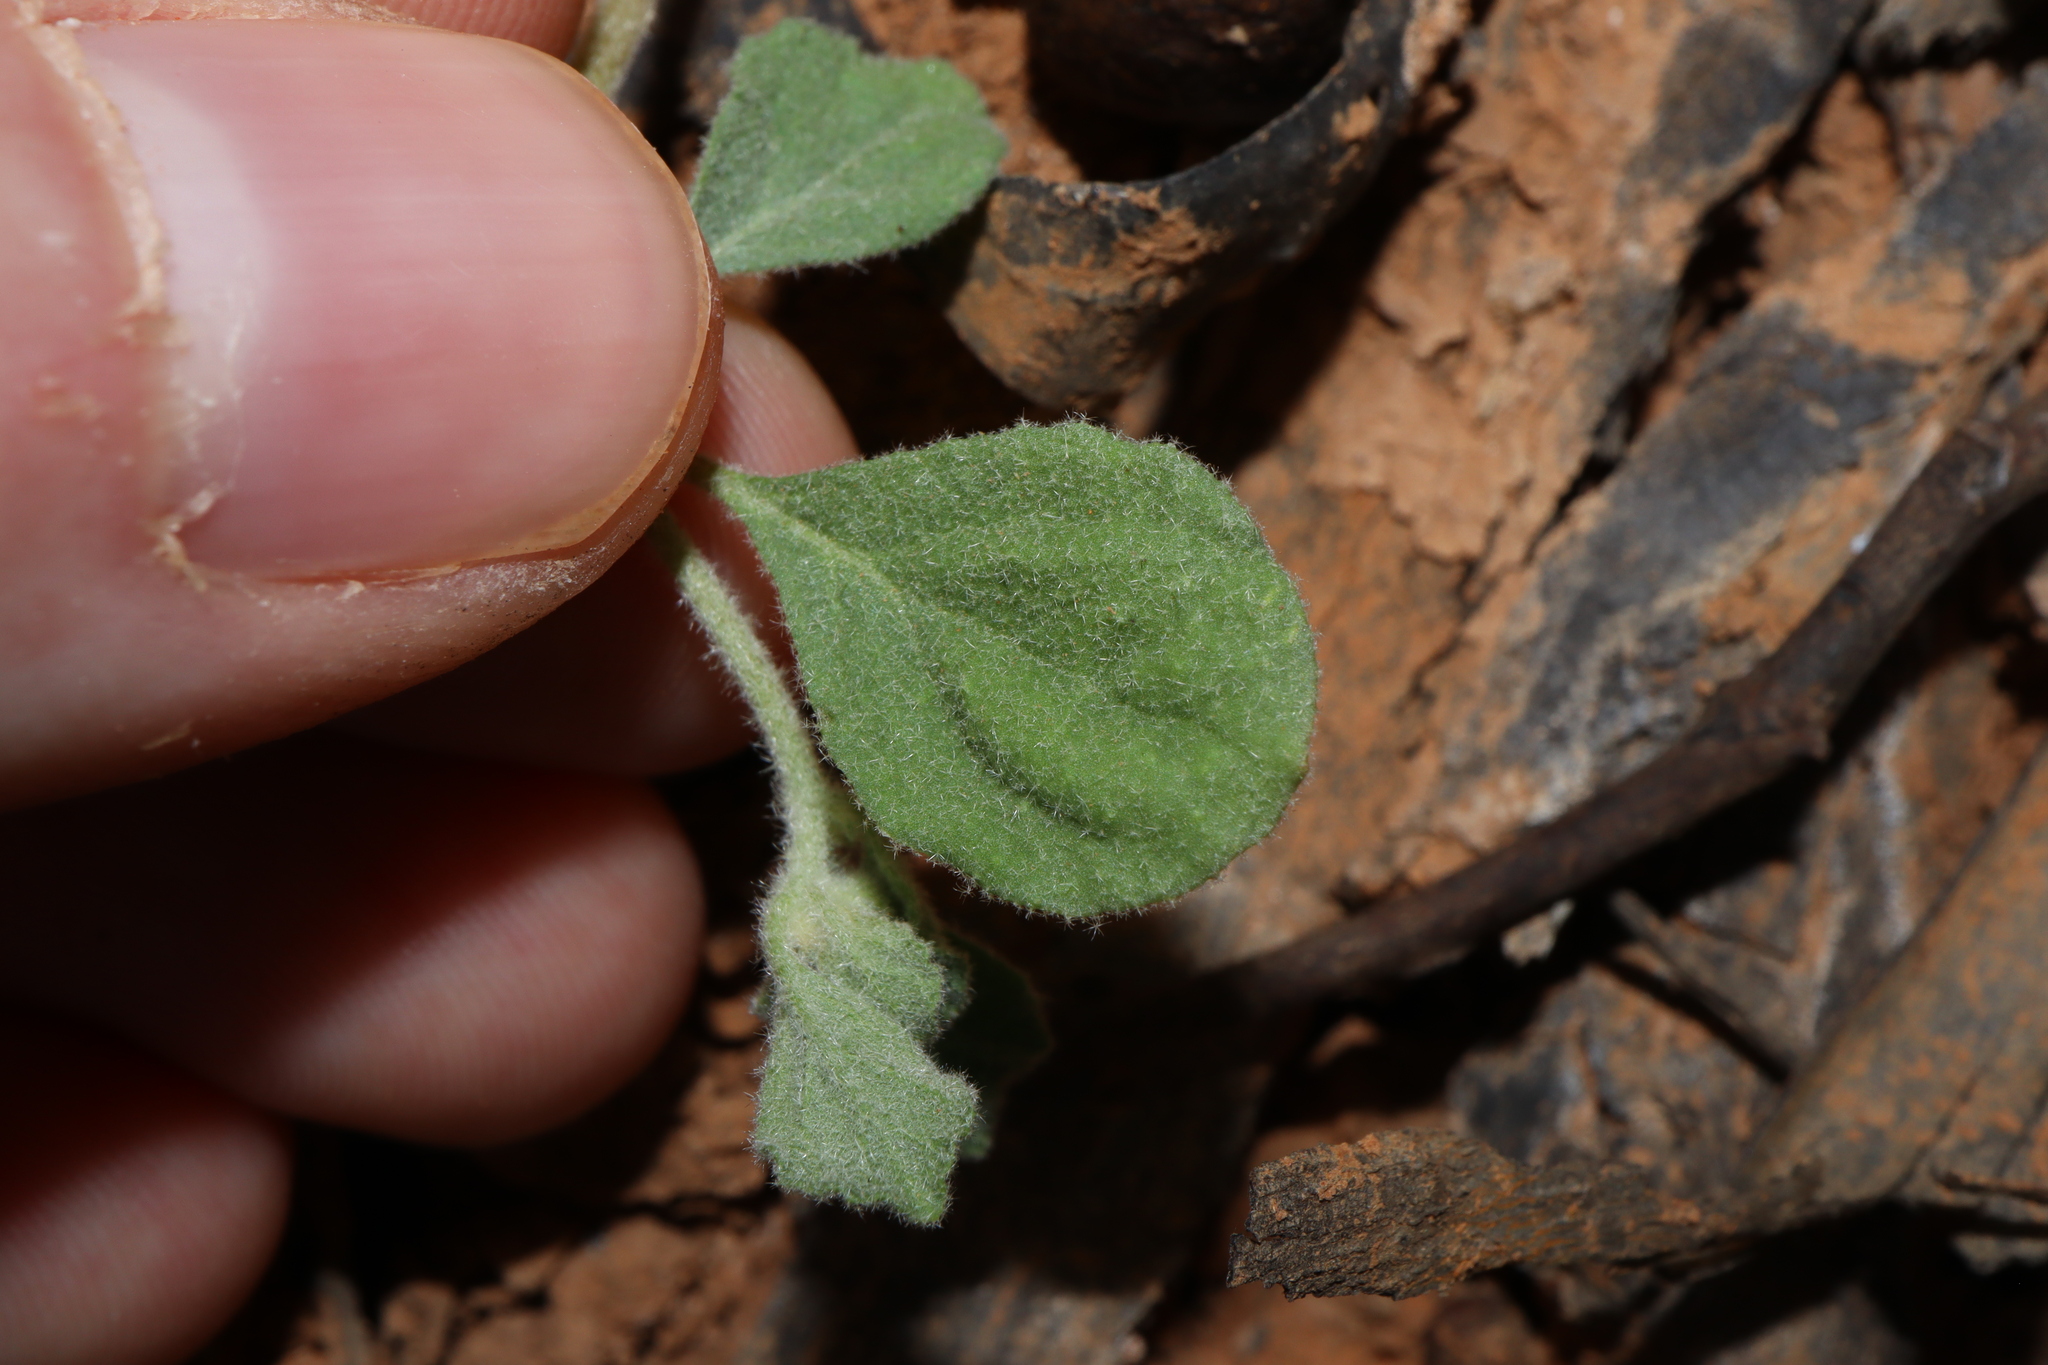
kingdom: Plantae
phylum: Tracheophyta
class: Magnoliopsida
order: Caryophyllales
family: Molluginaceae
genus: Glinus
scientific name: Glinus lotoides
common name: Lotus sweetjuice
